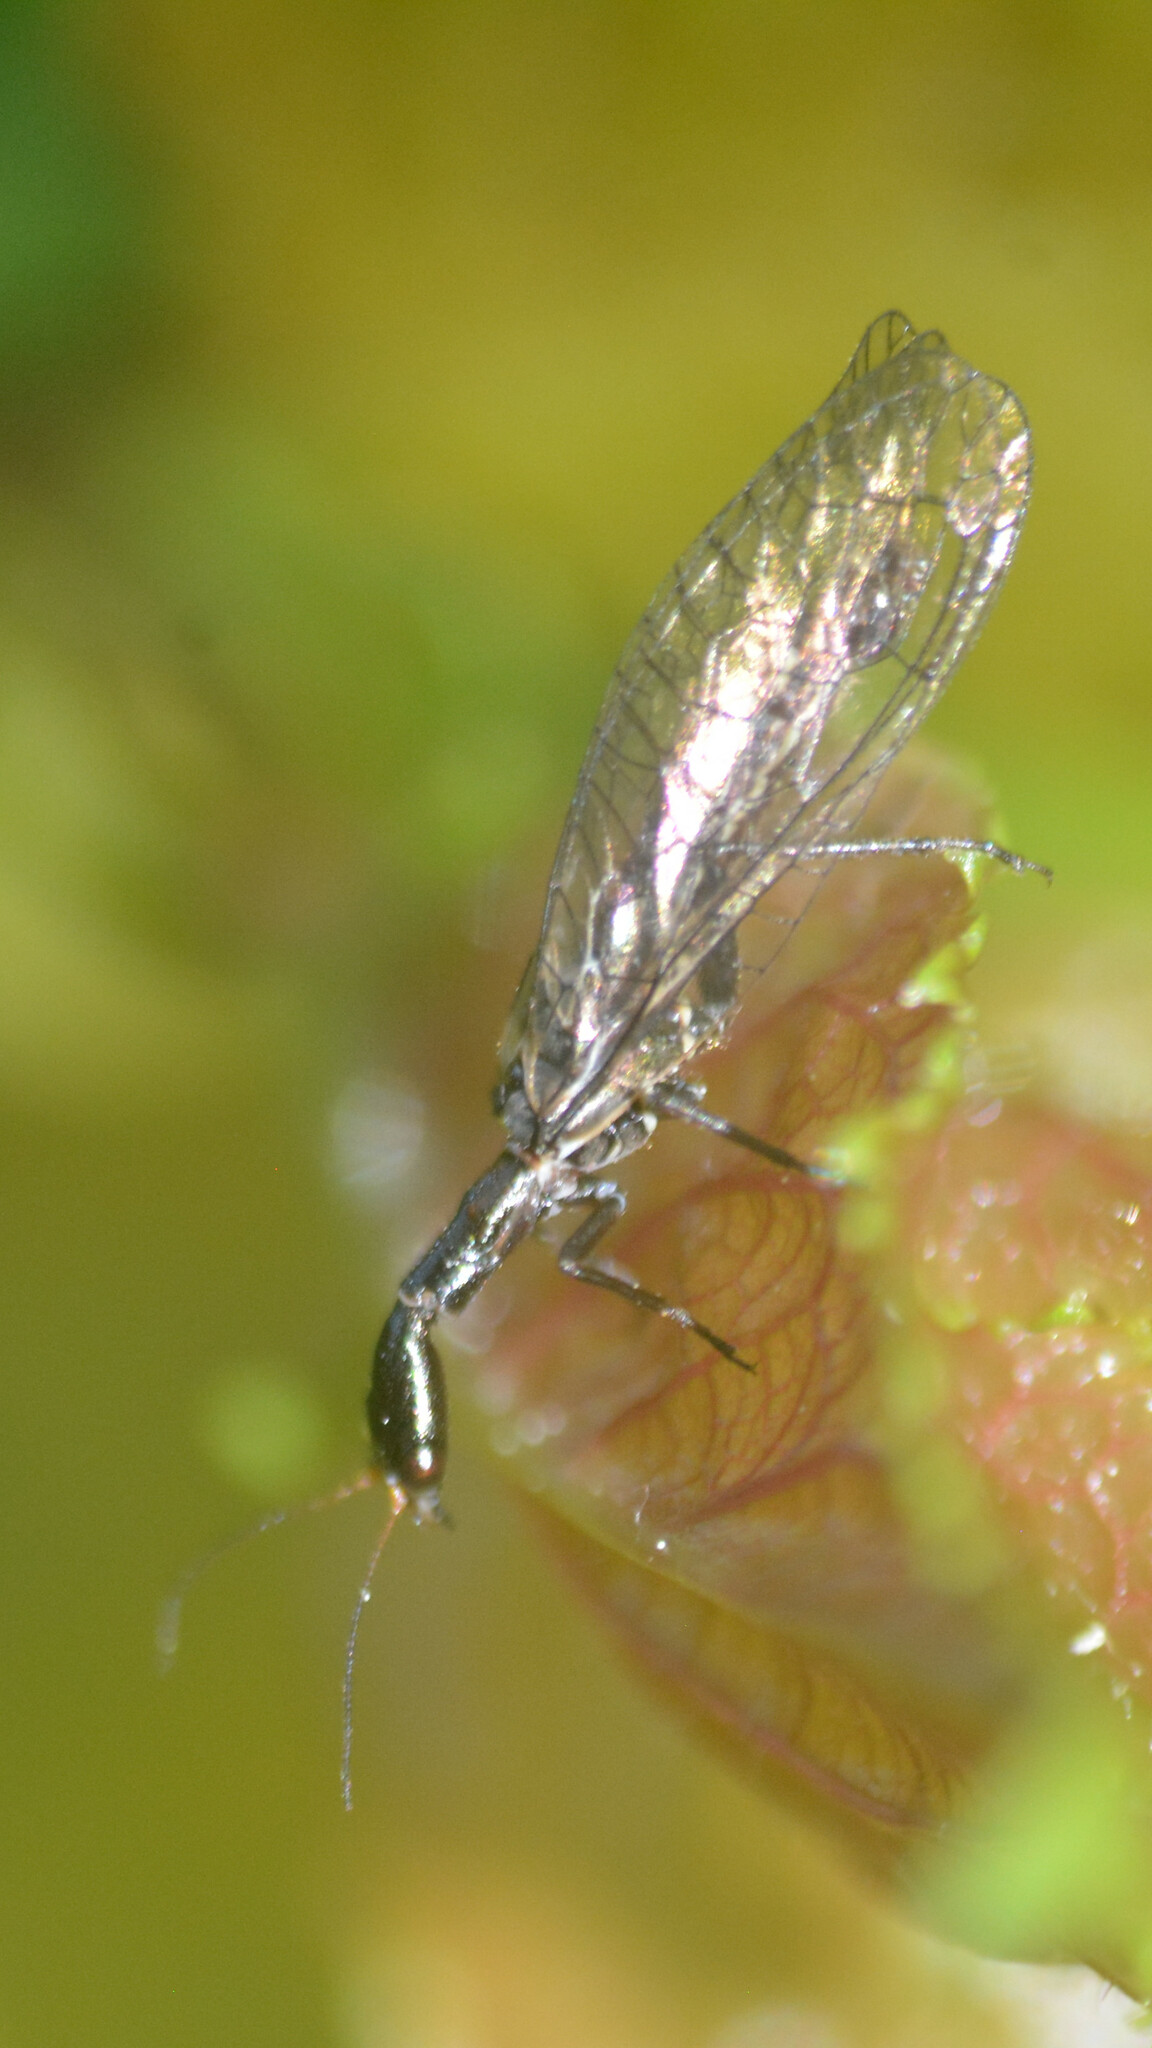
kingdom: Animalia
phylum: Arthropoda
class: Insecta
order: Raphidioptera
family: Raphidiidae
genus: Xanthostigma
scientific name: Xanthostigma xanthostigma
